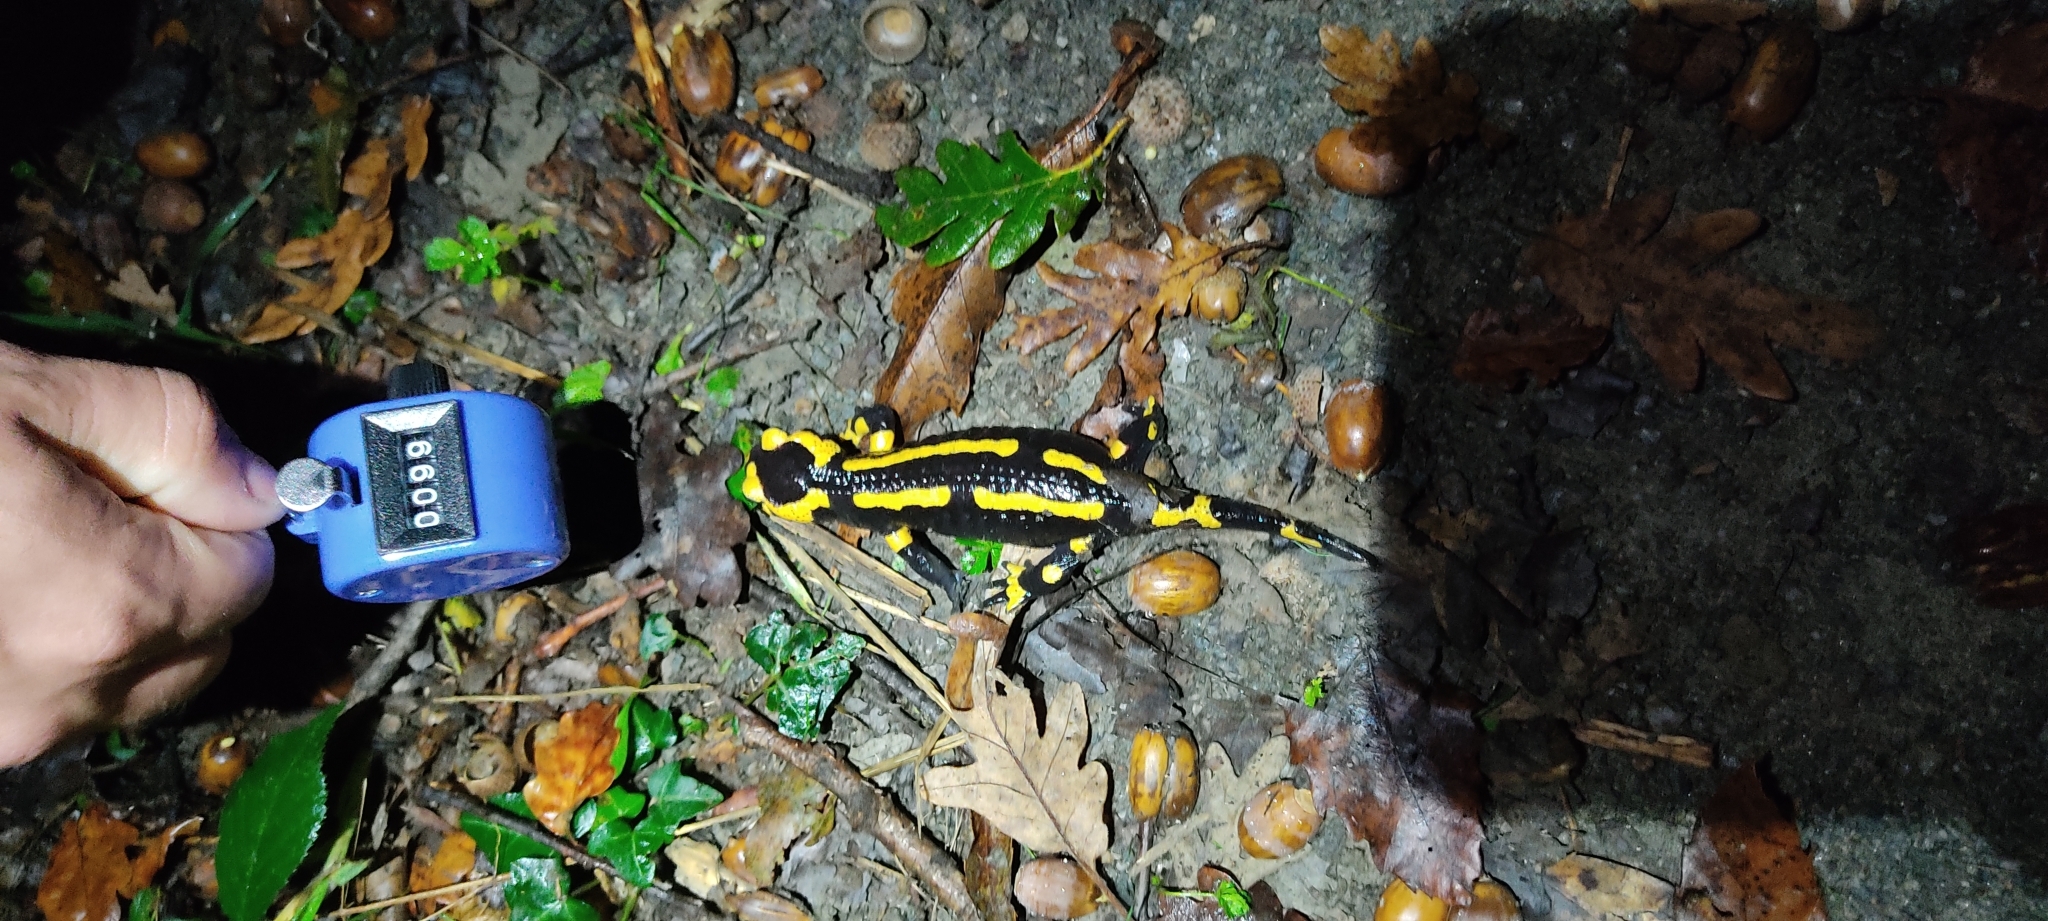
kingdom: Animalia
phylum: Chordata
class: Amphibia
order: Caudata
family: Salamandridae
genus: Salamandra
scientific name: Salamandra salamandra
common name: Fire salamander
